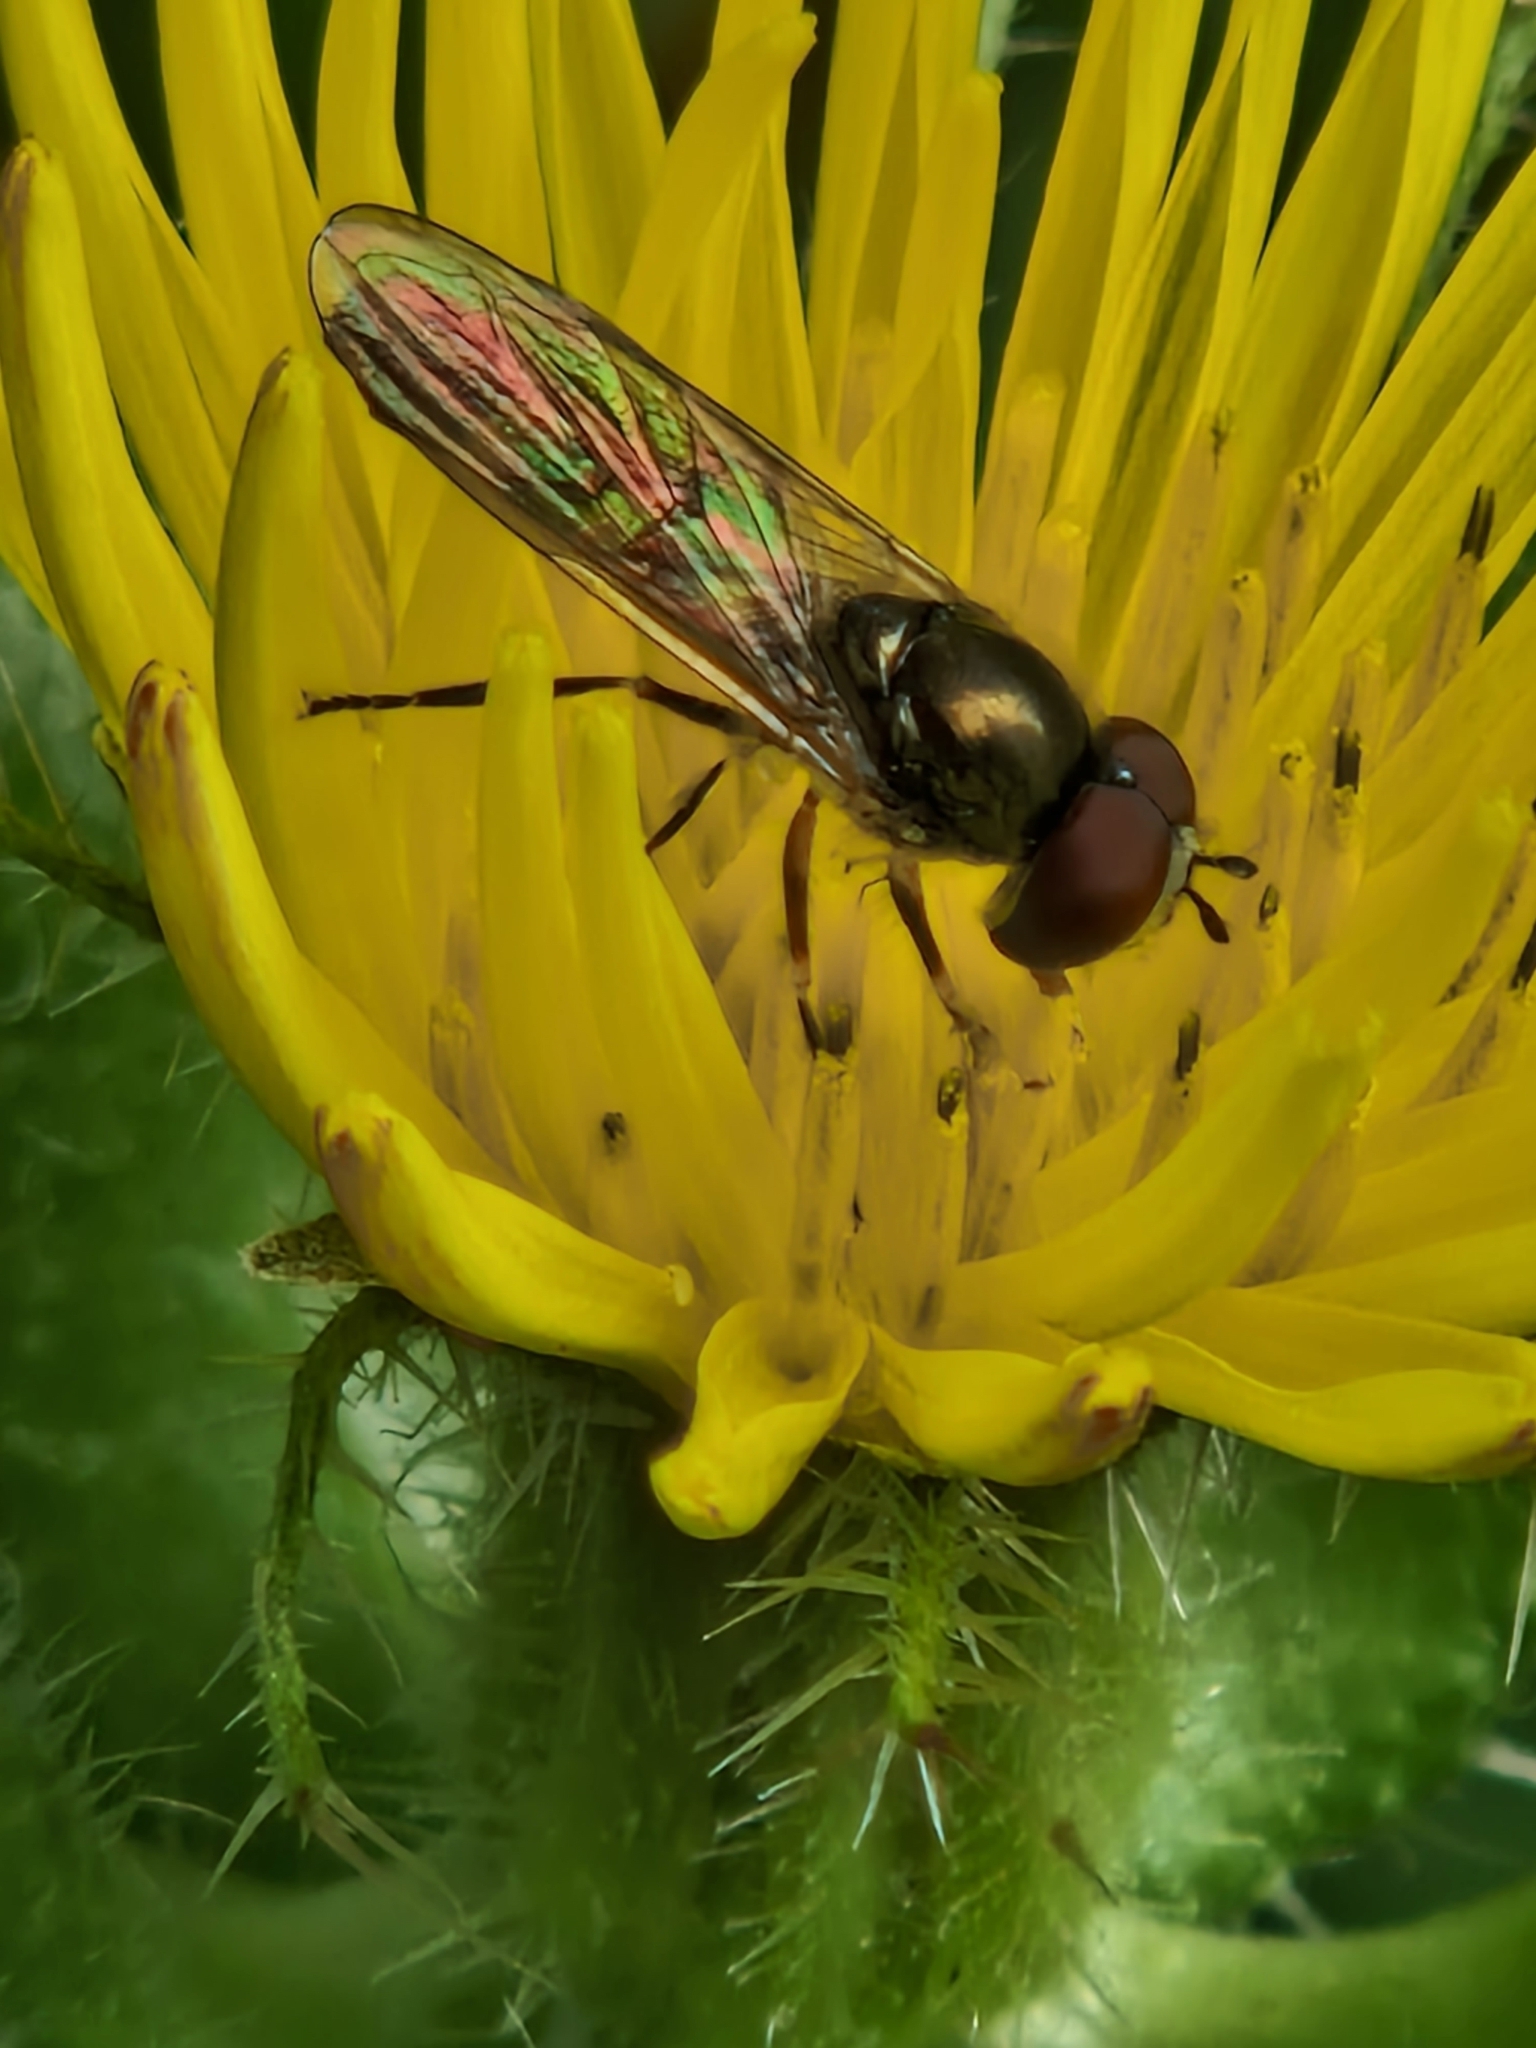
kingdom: Animalia
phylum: Arthropoda
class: Insecta
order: Diptera
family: Syrphidae
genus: Platycheirus
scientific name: Platycheirus scutatus
